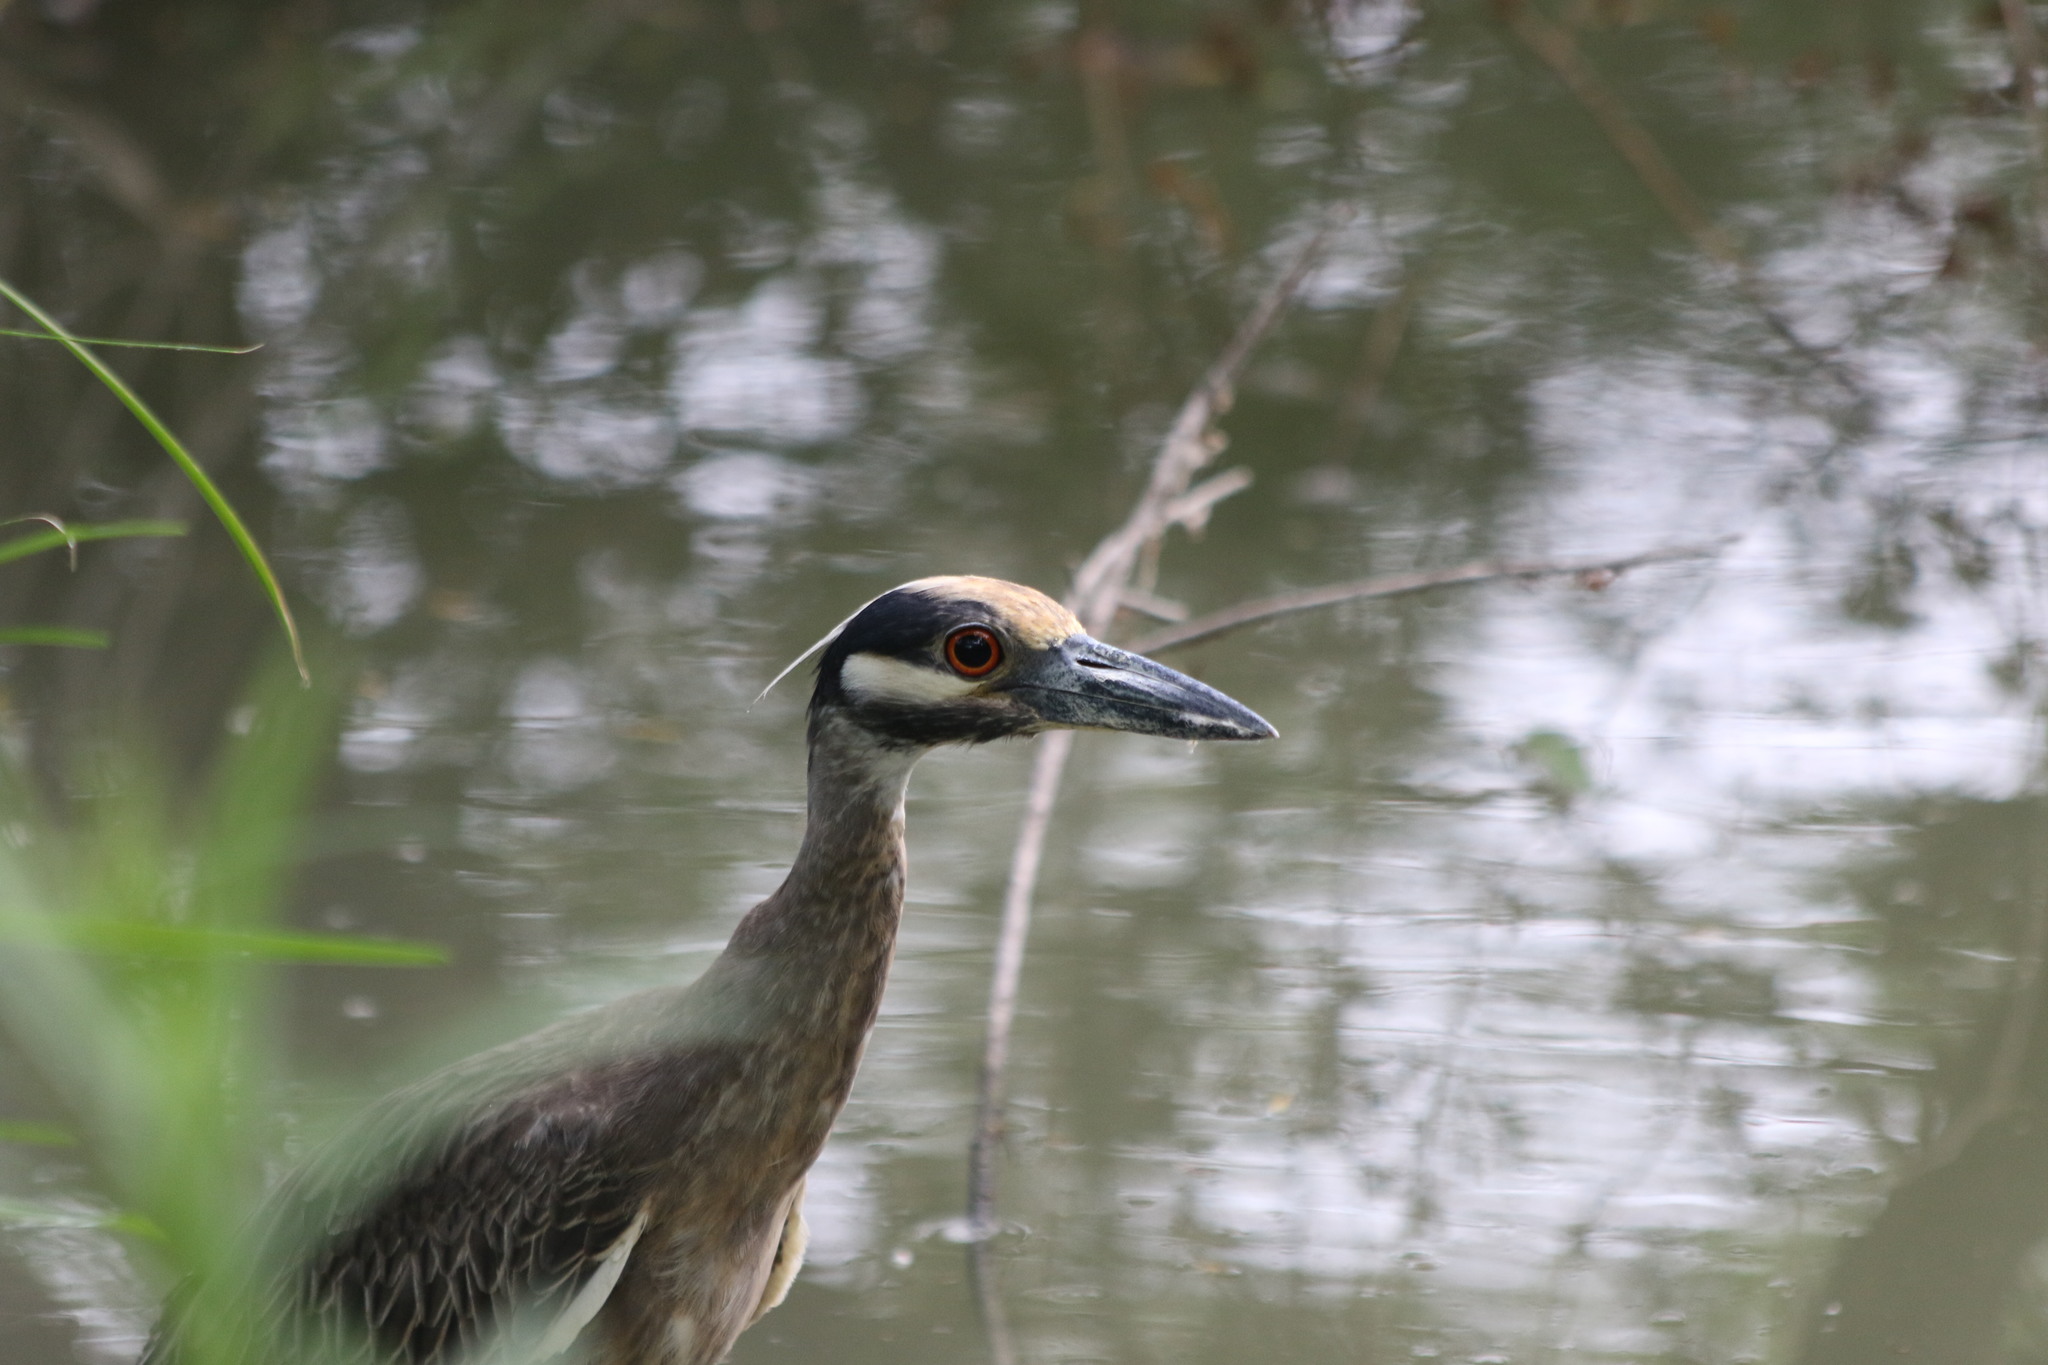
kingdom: Animalia
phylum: Chordata
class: Aves
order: Pelecaniformes
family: Ardeidae
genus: Nyctanassa
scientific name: Nyctanassa violacea
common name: Yellow-crowned night heron
